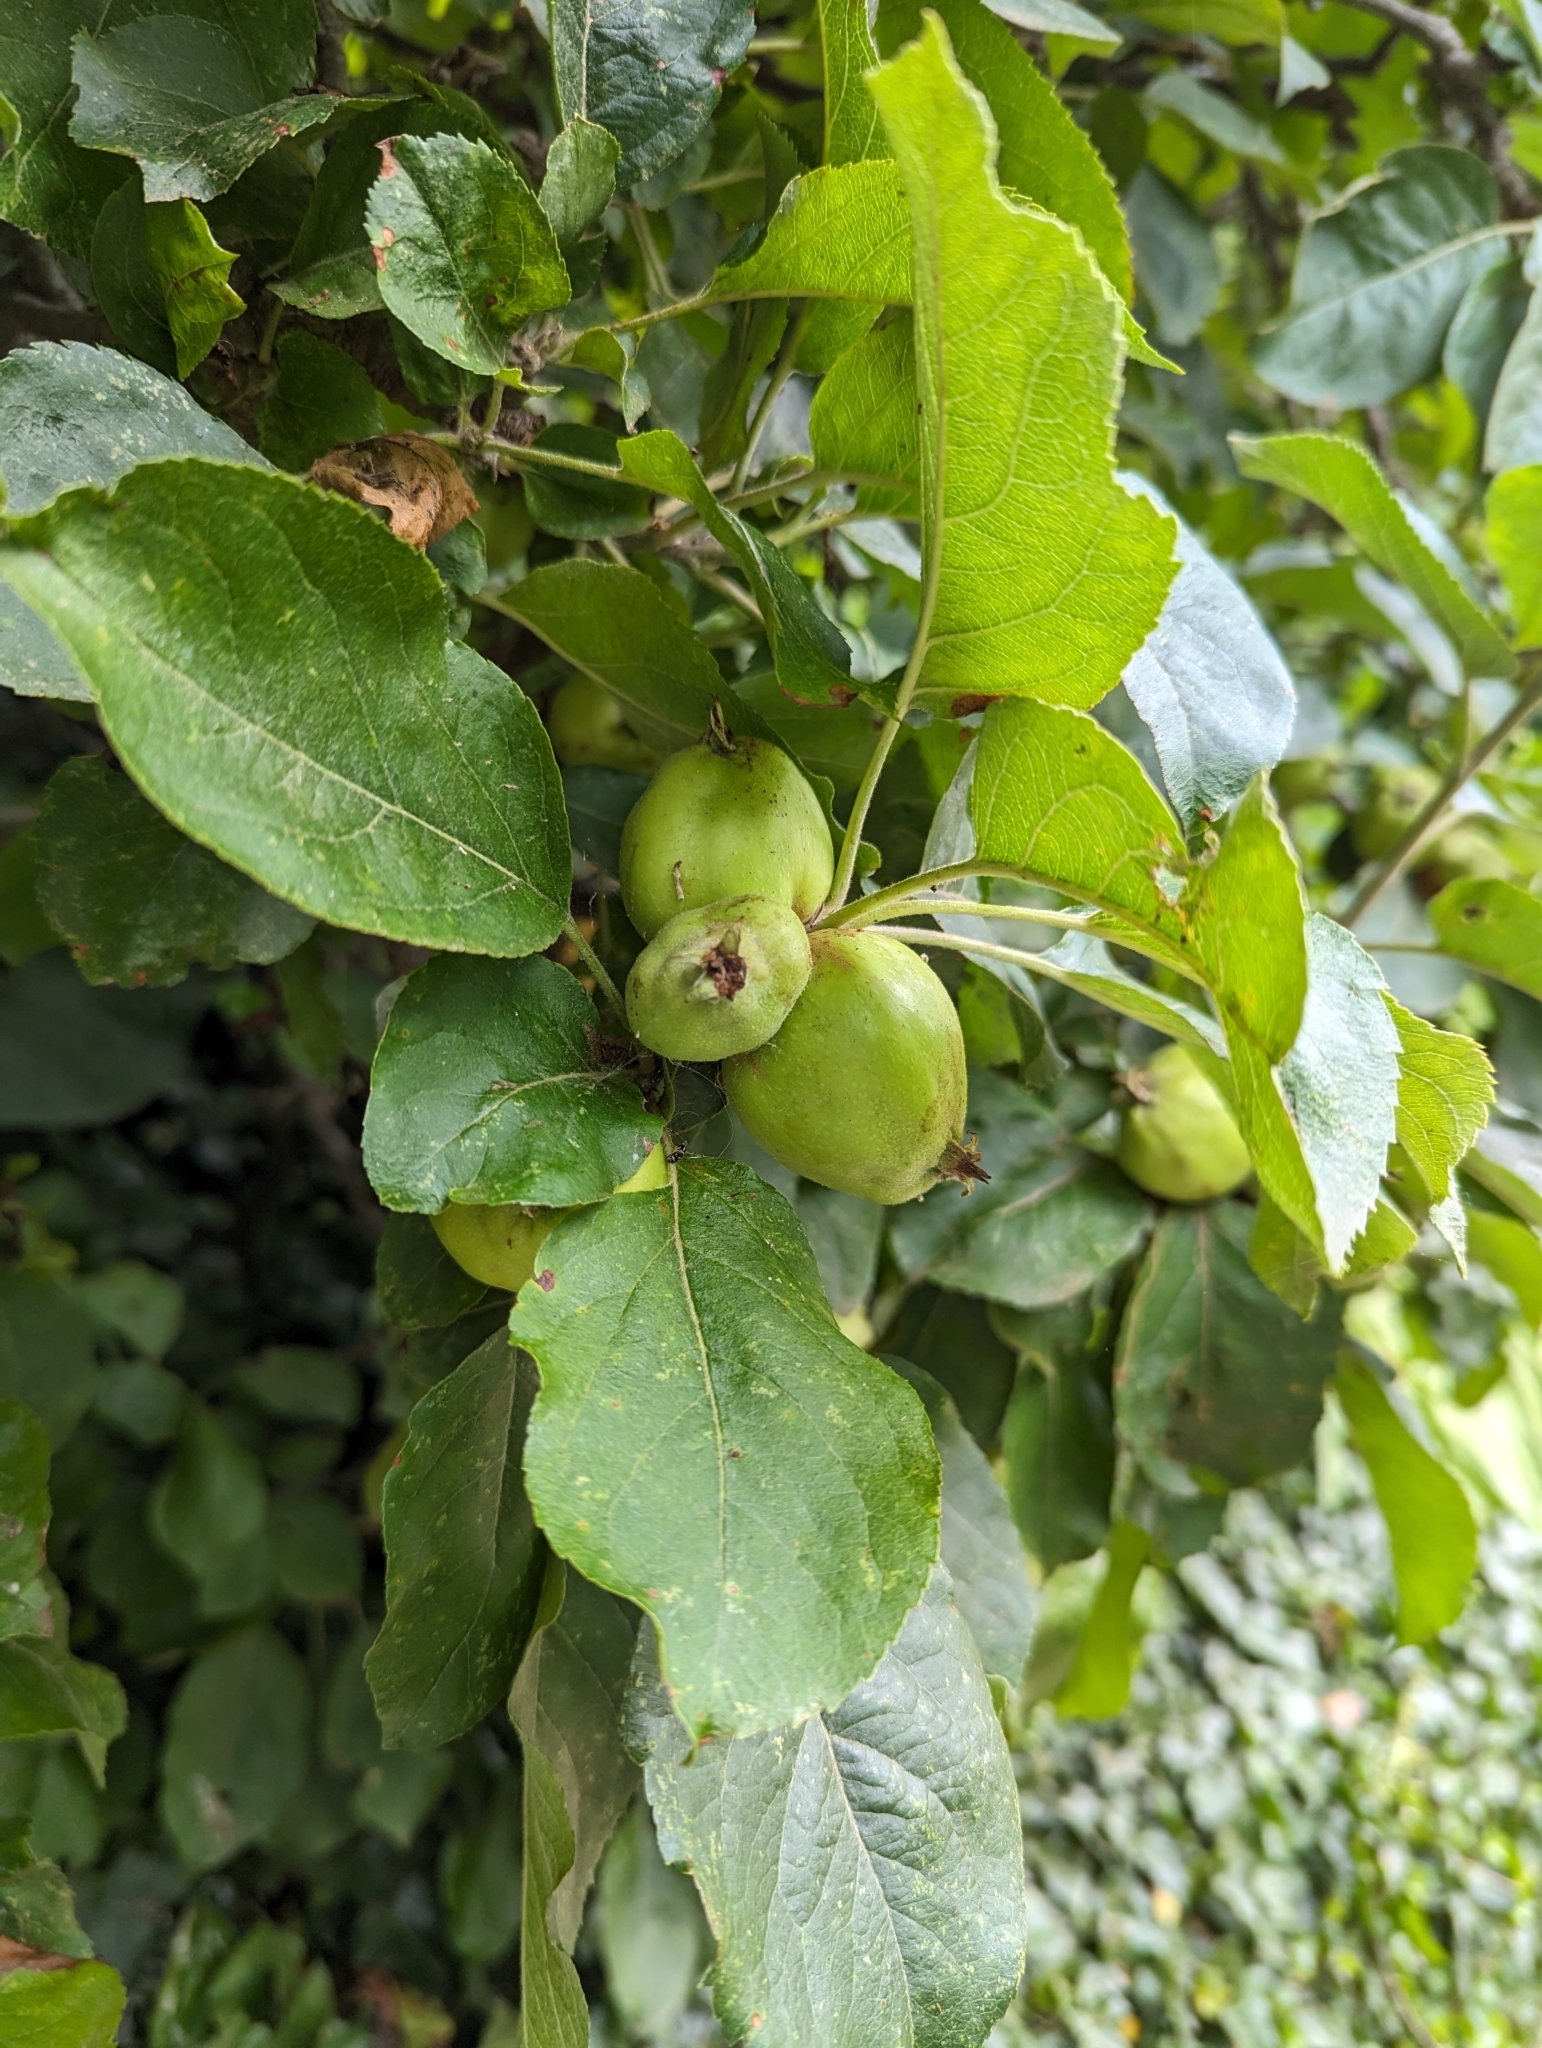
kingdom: Plantae
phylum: Tracheophyta
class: Magnoliopsida
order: Rosales
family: Rosaceae
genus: Malus
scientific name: Malus domestica
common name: Apple
